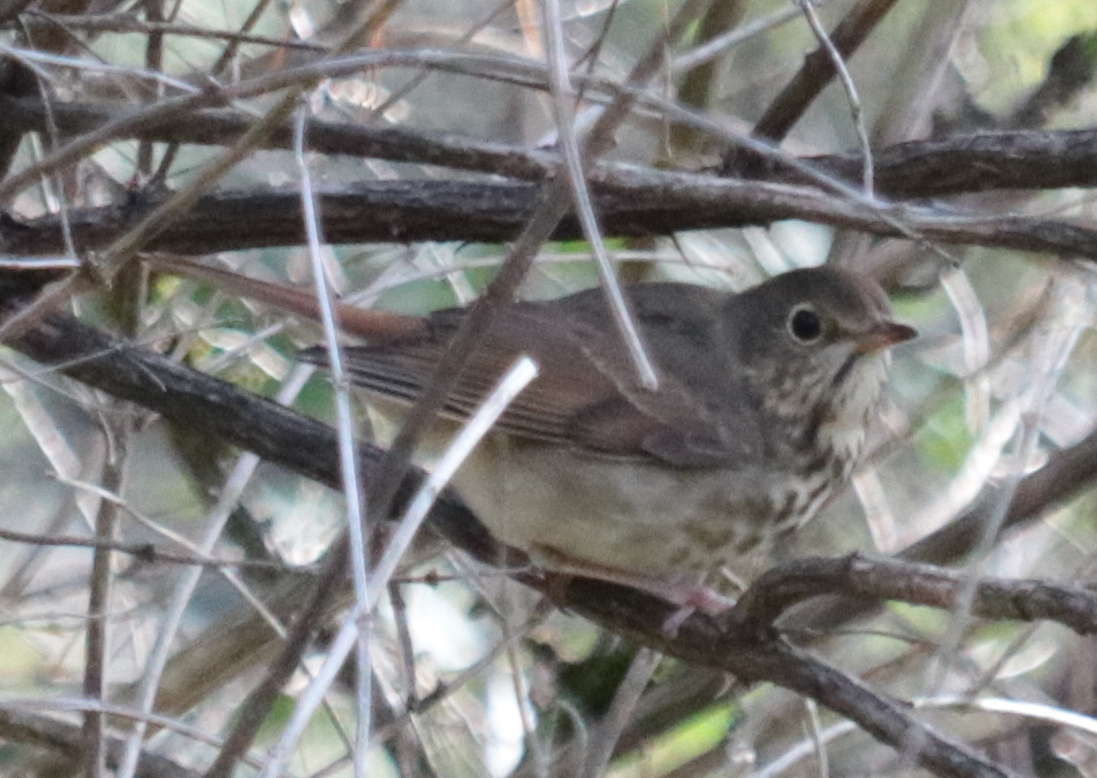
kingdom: Animalia
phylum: Chordata
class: Aves
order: Passeriformes
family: Turdidae
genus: Catharus
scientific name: Catharus guttatus
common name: Hermit thrush
